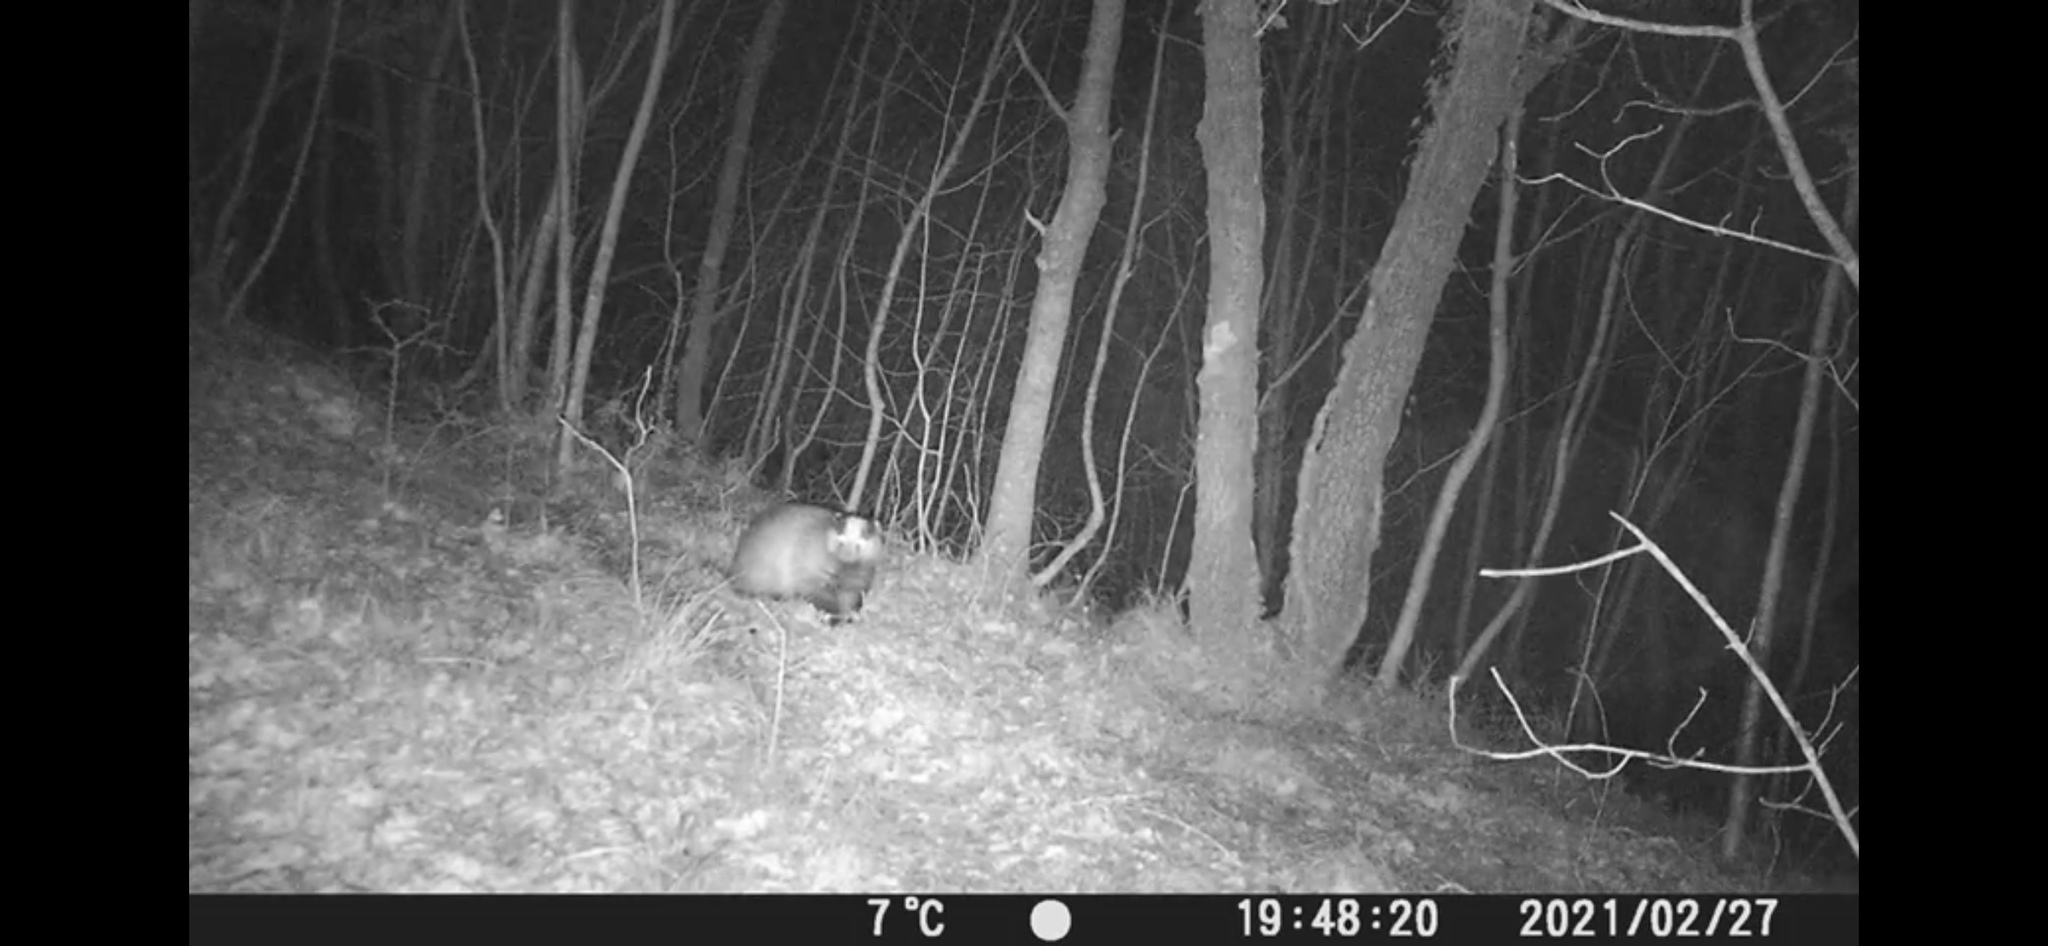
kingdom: Animalia
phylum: Chordata
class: Mammalia
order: Carnivora
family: Mustelidae
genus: Meles
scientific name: Meles meles
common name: Eurasian badger
